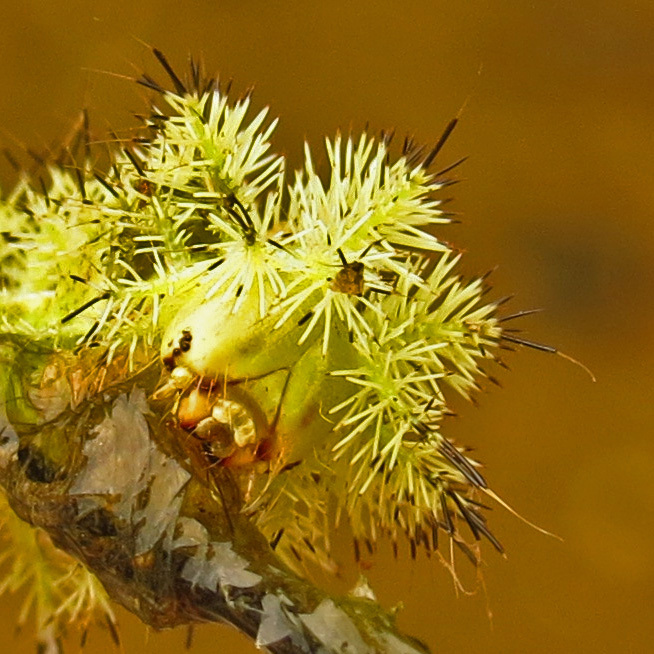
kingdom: Animalia
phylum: Arthropoda
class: Insecta
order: Lepidoptera
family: Saturniidae
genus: Automeris
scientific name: Automeris io
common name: Io moth
